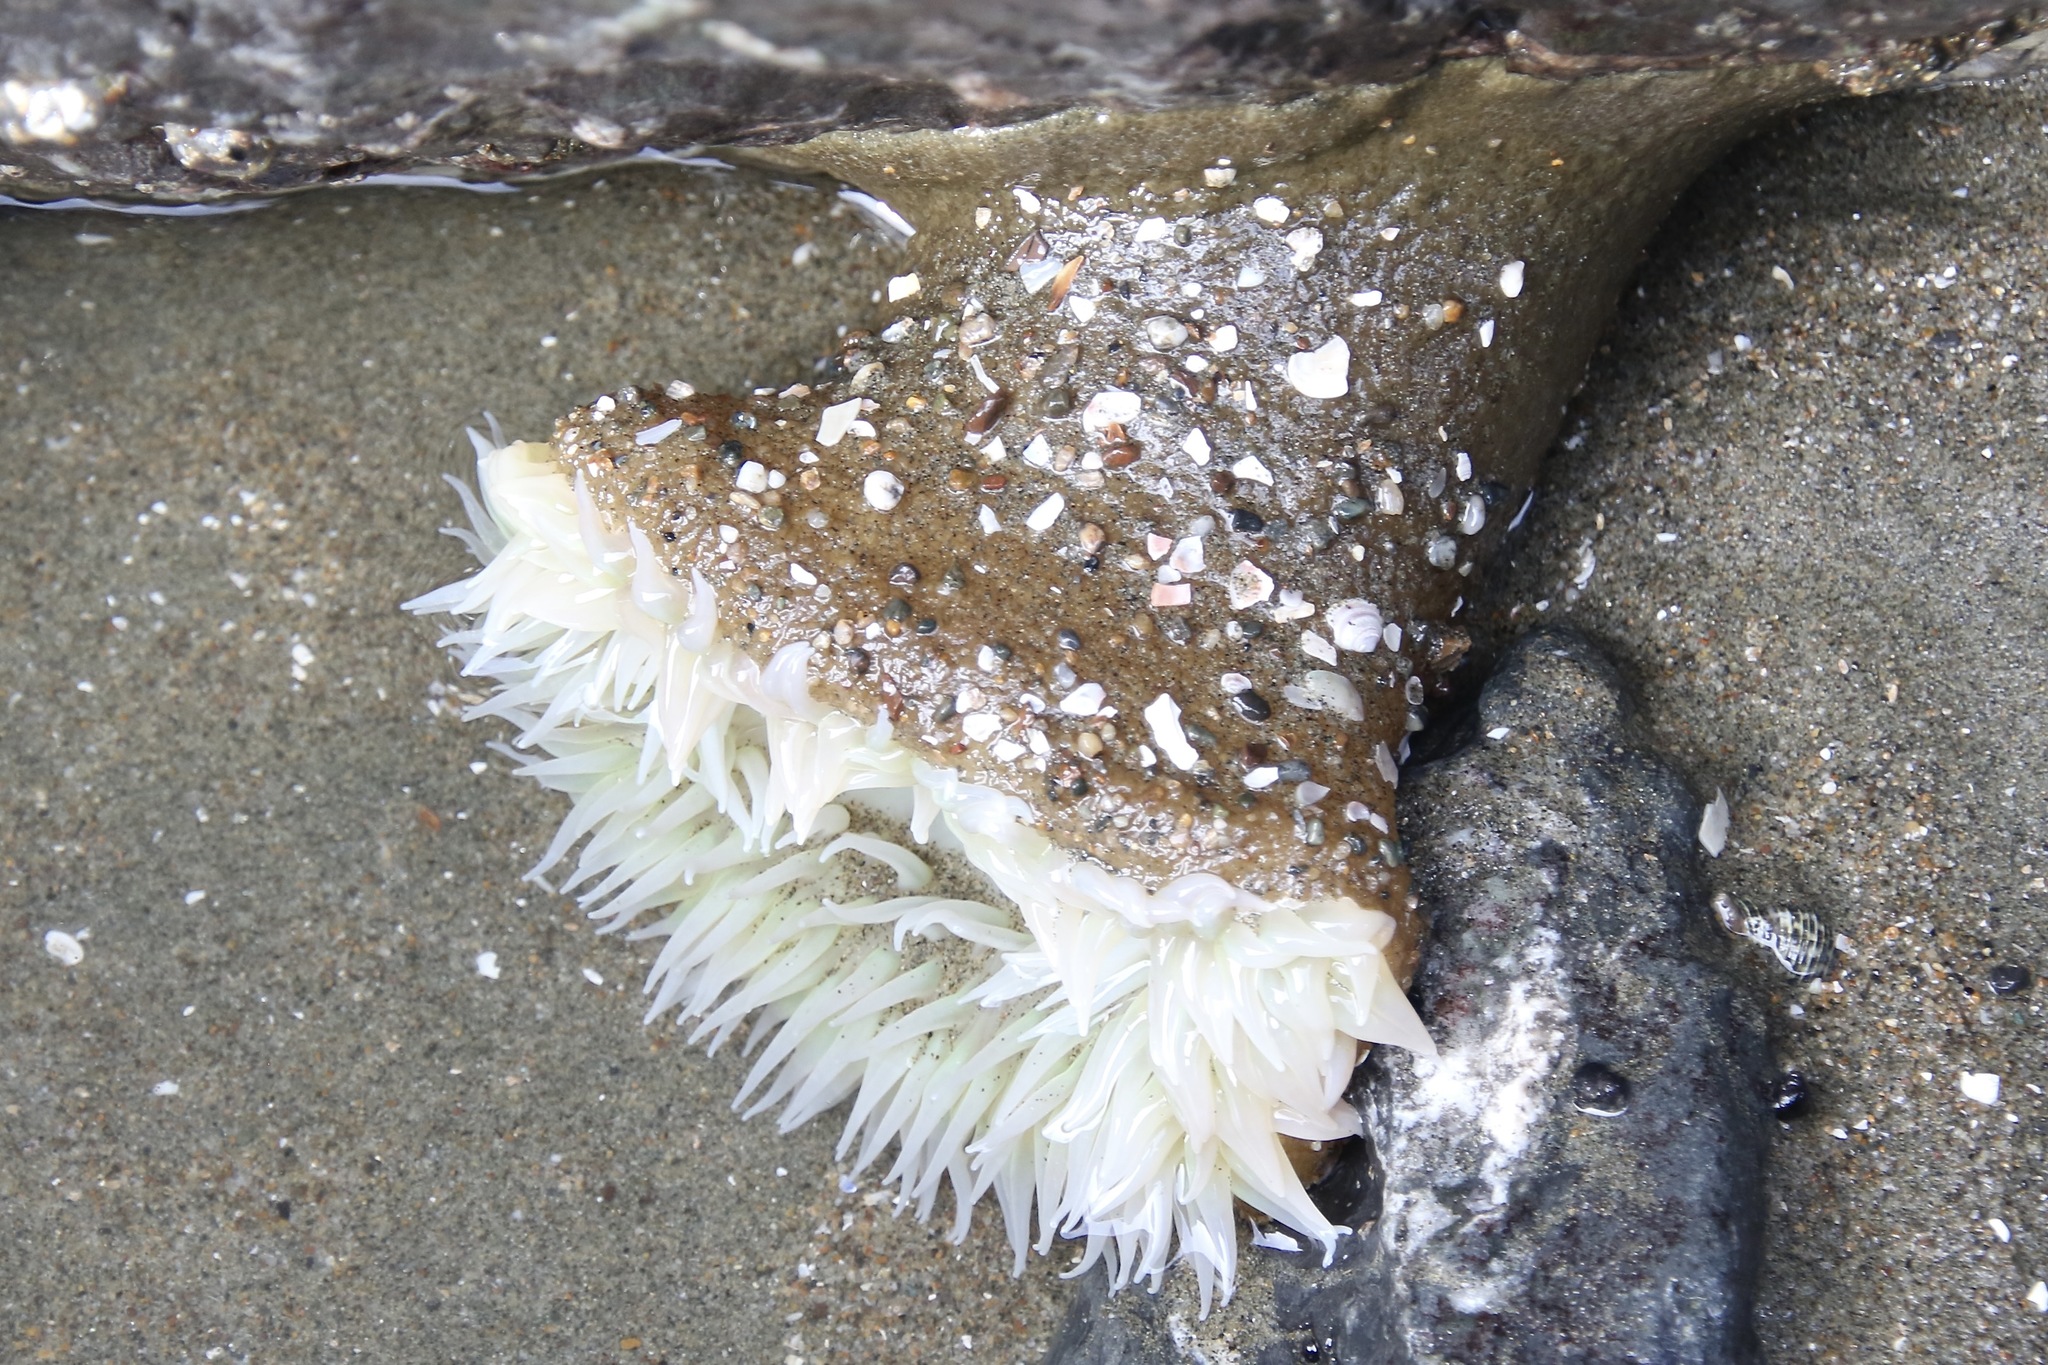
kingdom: Animalia
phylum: Cnidaria
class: Anthozoa
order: Actiniaria
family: Actiniidae
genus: Anthopleura
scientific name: Anthopleura xanthogrammica
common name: Giant green anemone
